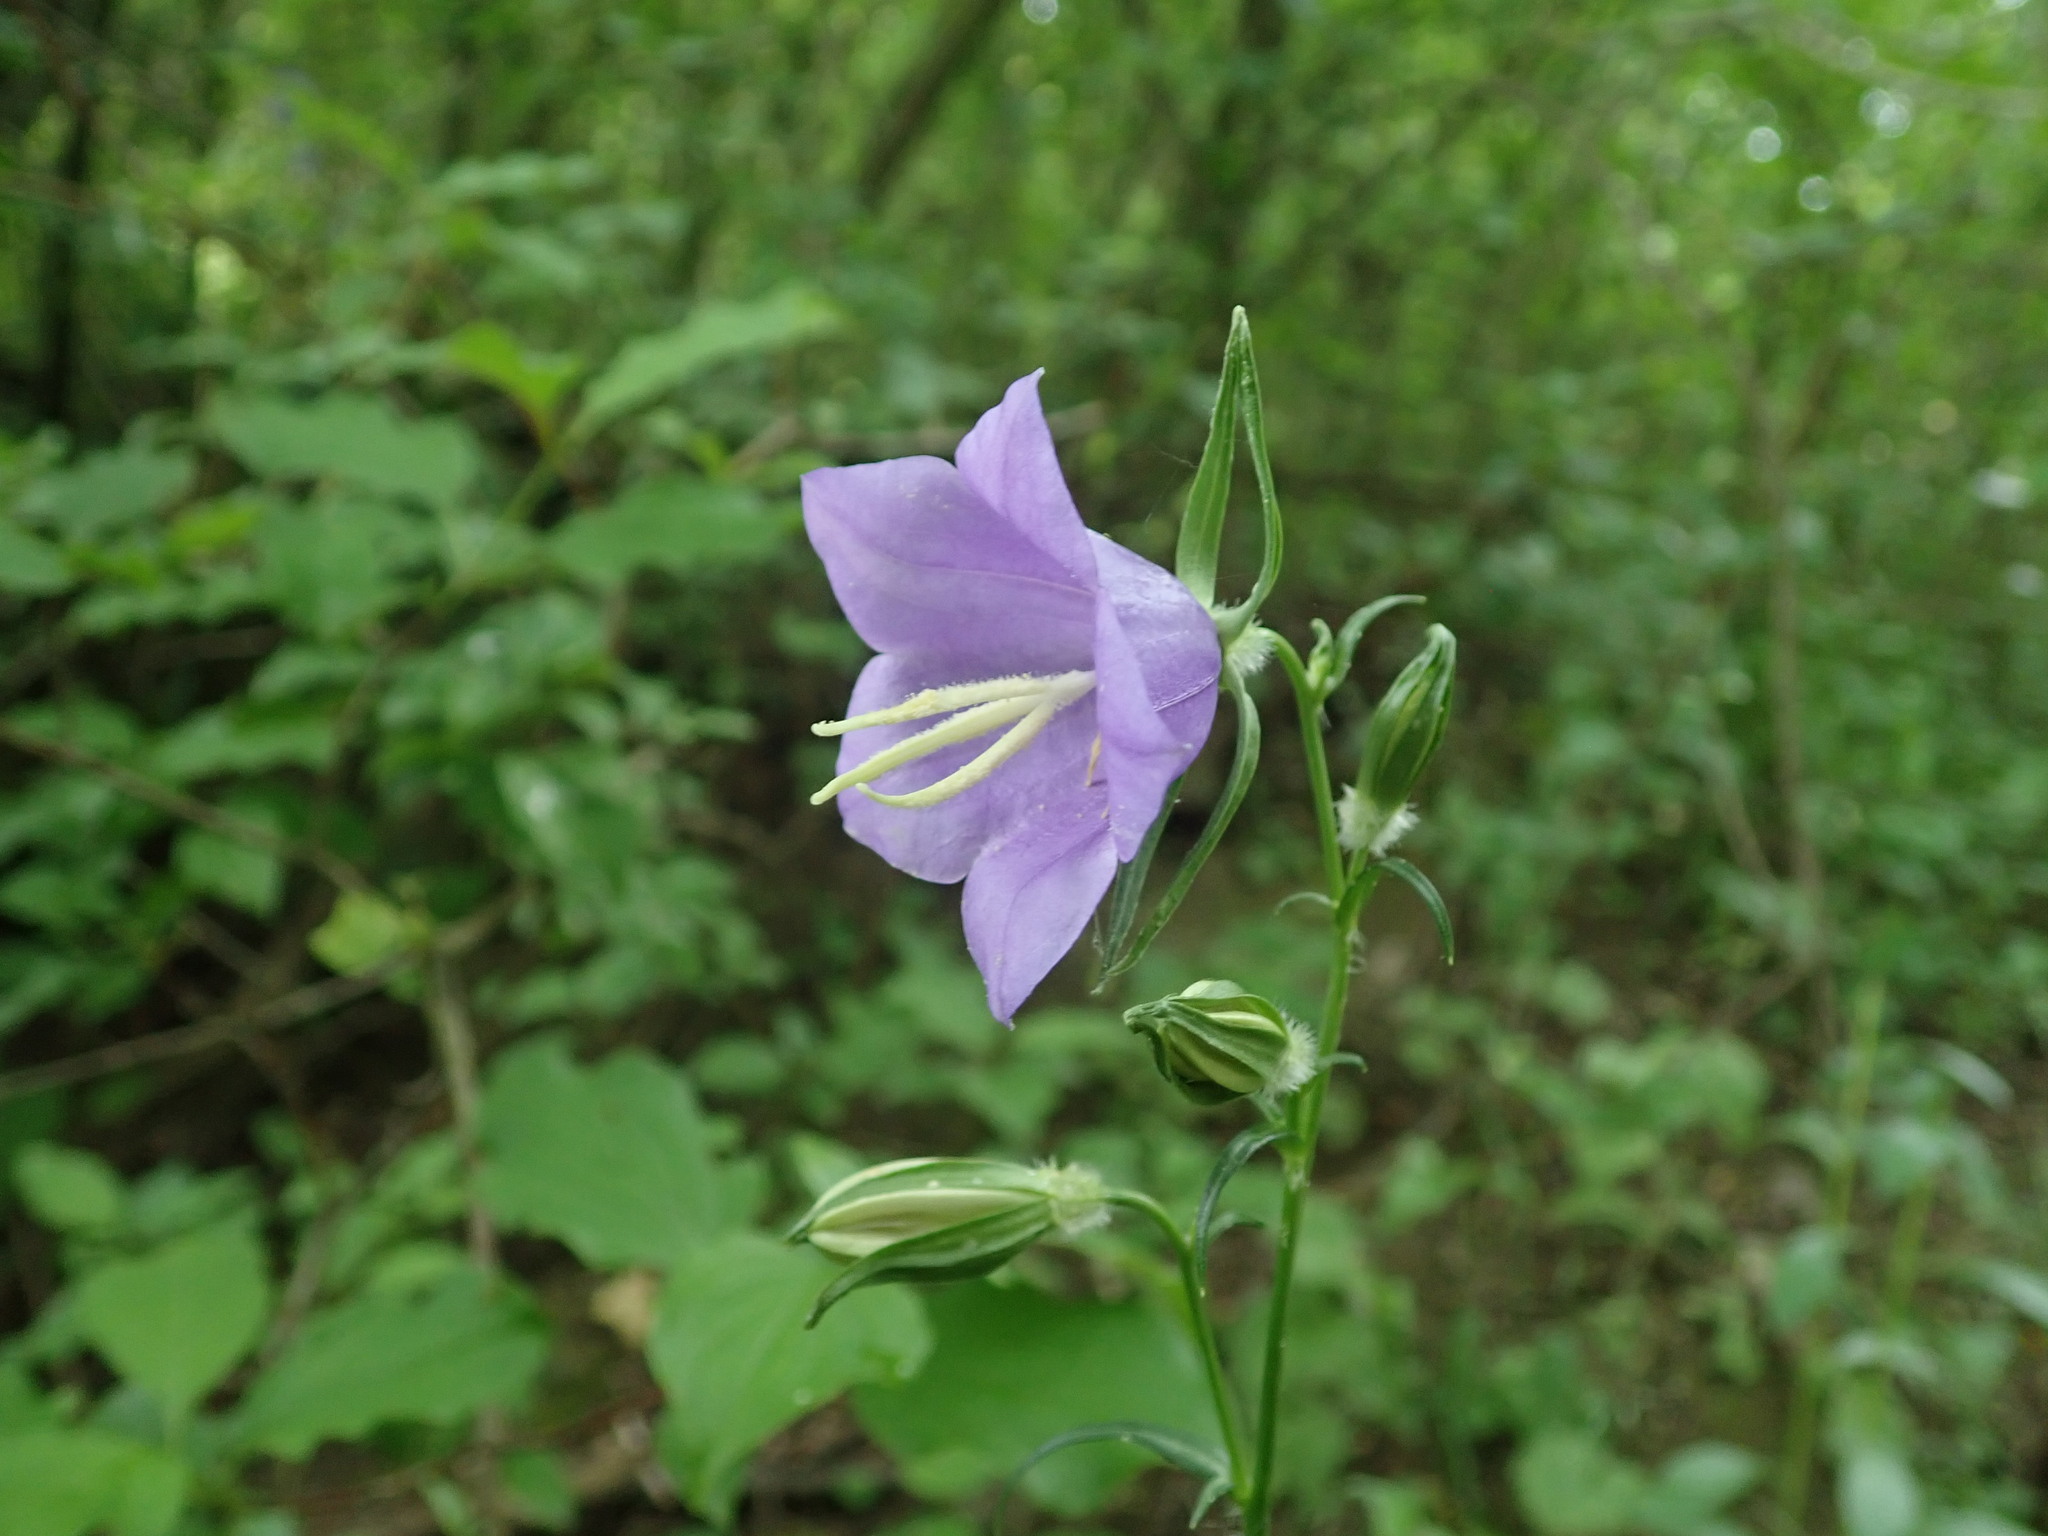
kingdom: Plantae
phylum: Tracheophyta
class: Magnoliopsida
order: Asterales
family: Campanulaceae
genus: Campanula
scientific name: Campanula persicifolia
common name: Peach-leaved bellflower
